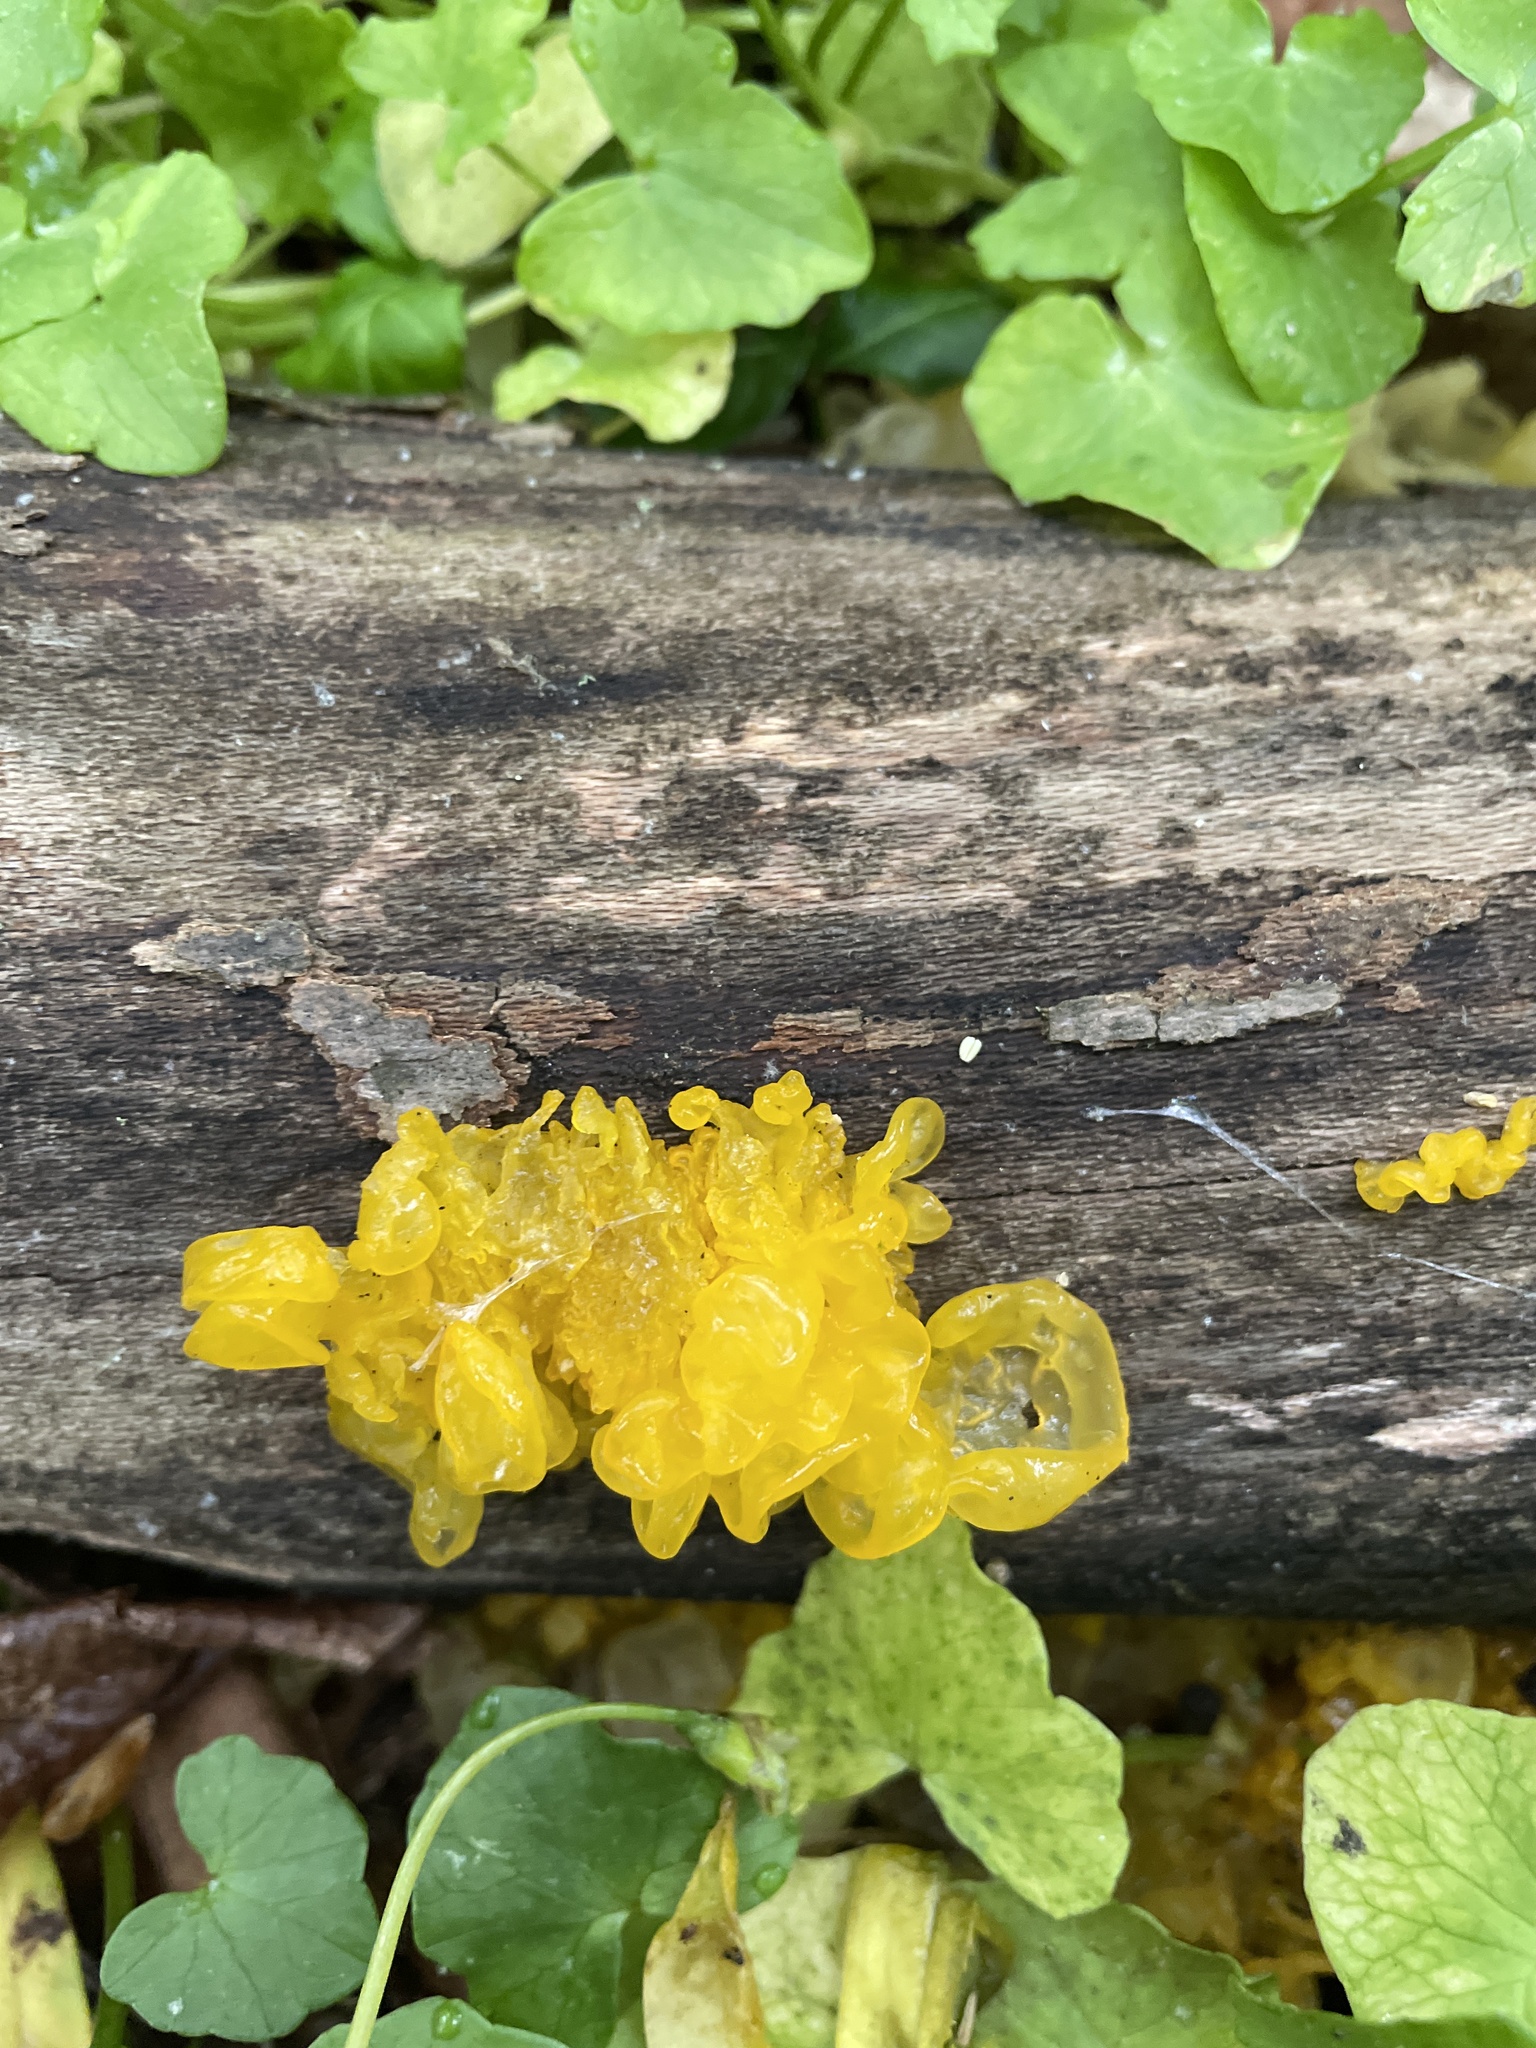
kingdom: Fungi
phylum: Basidiomycota
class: Tremellomycetes
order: Tremellales
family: Tremellaceae
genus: Tremella
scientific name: Tremella mesenterica
